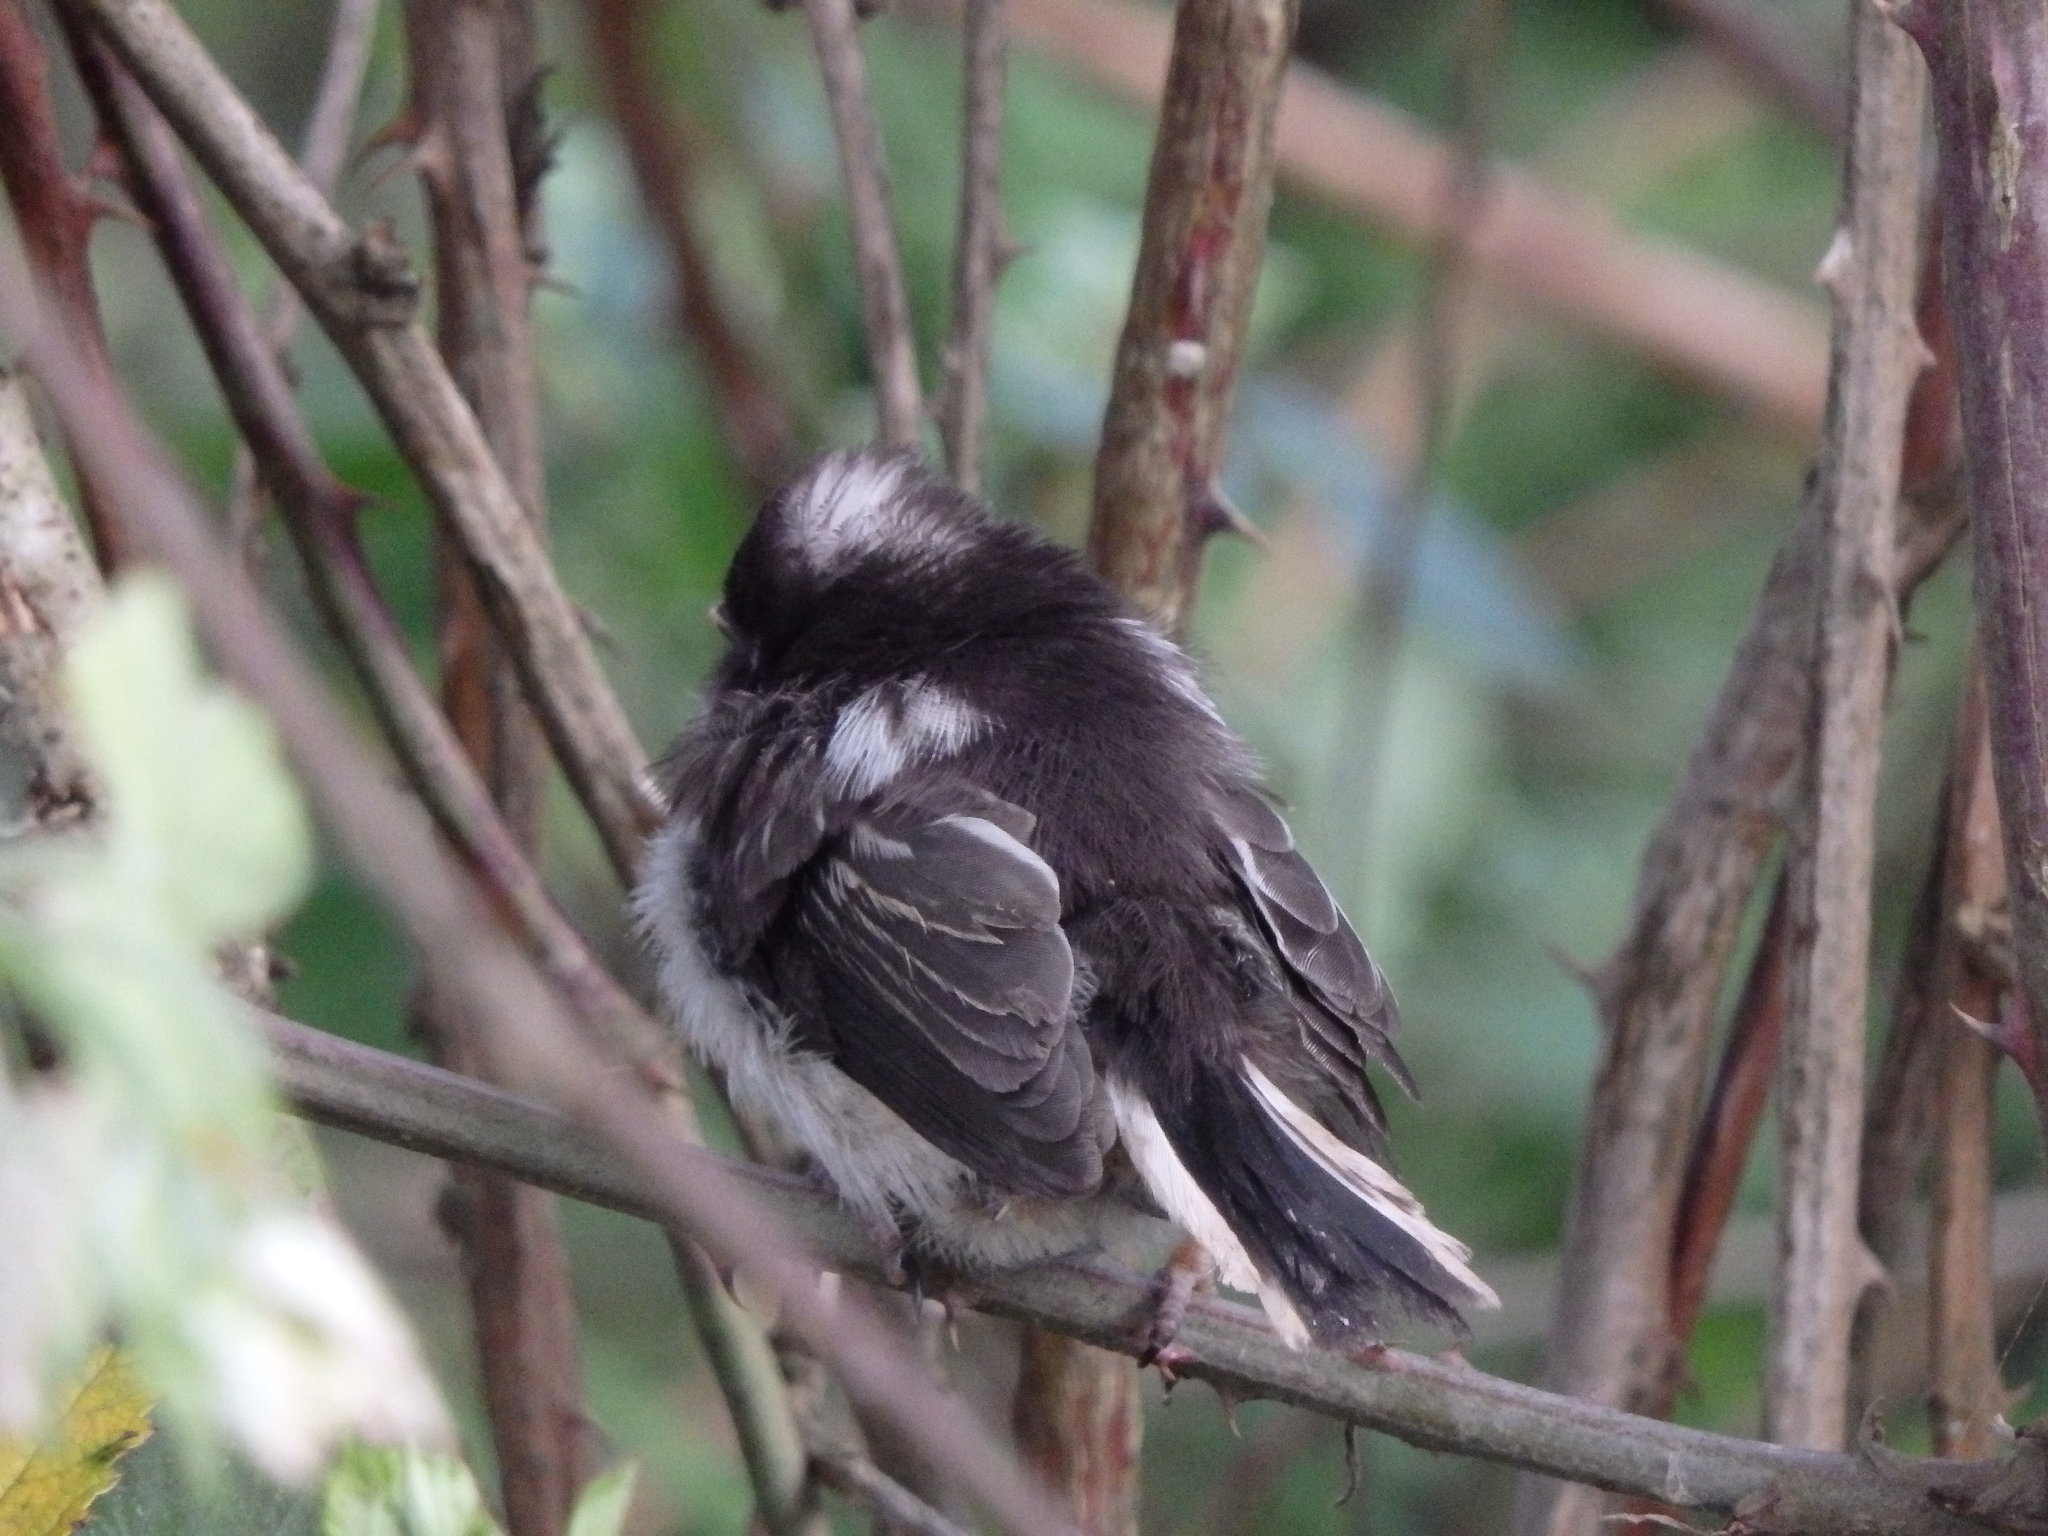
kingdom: Animalia
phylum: Chordata
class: Aves
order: Passeriformes
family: Aegithalidae
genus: Aegithalos
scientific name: Aegithalos caudatus
